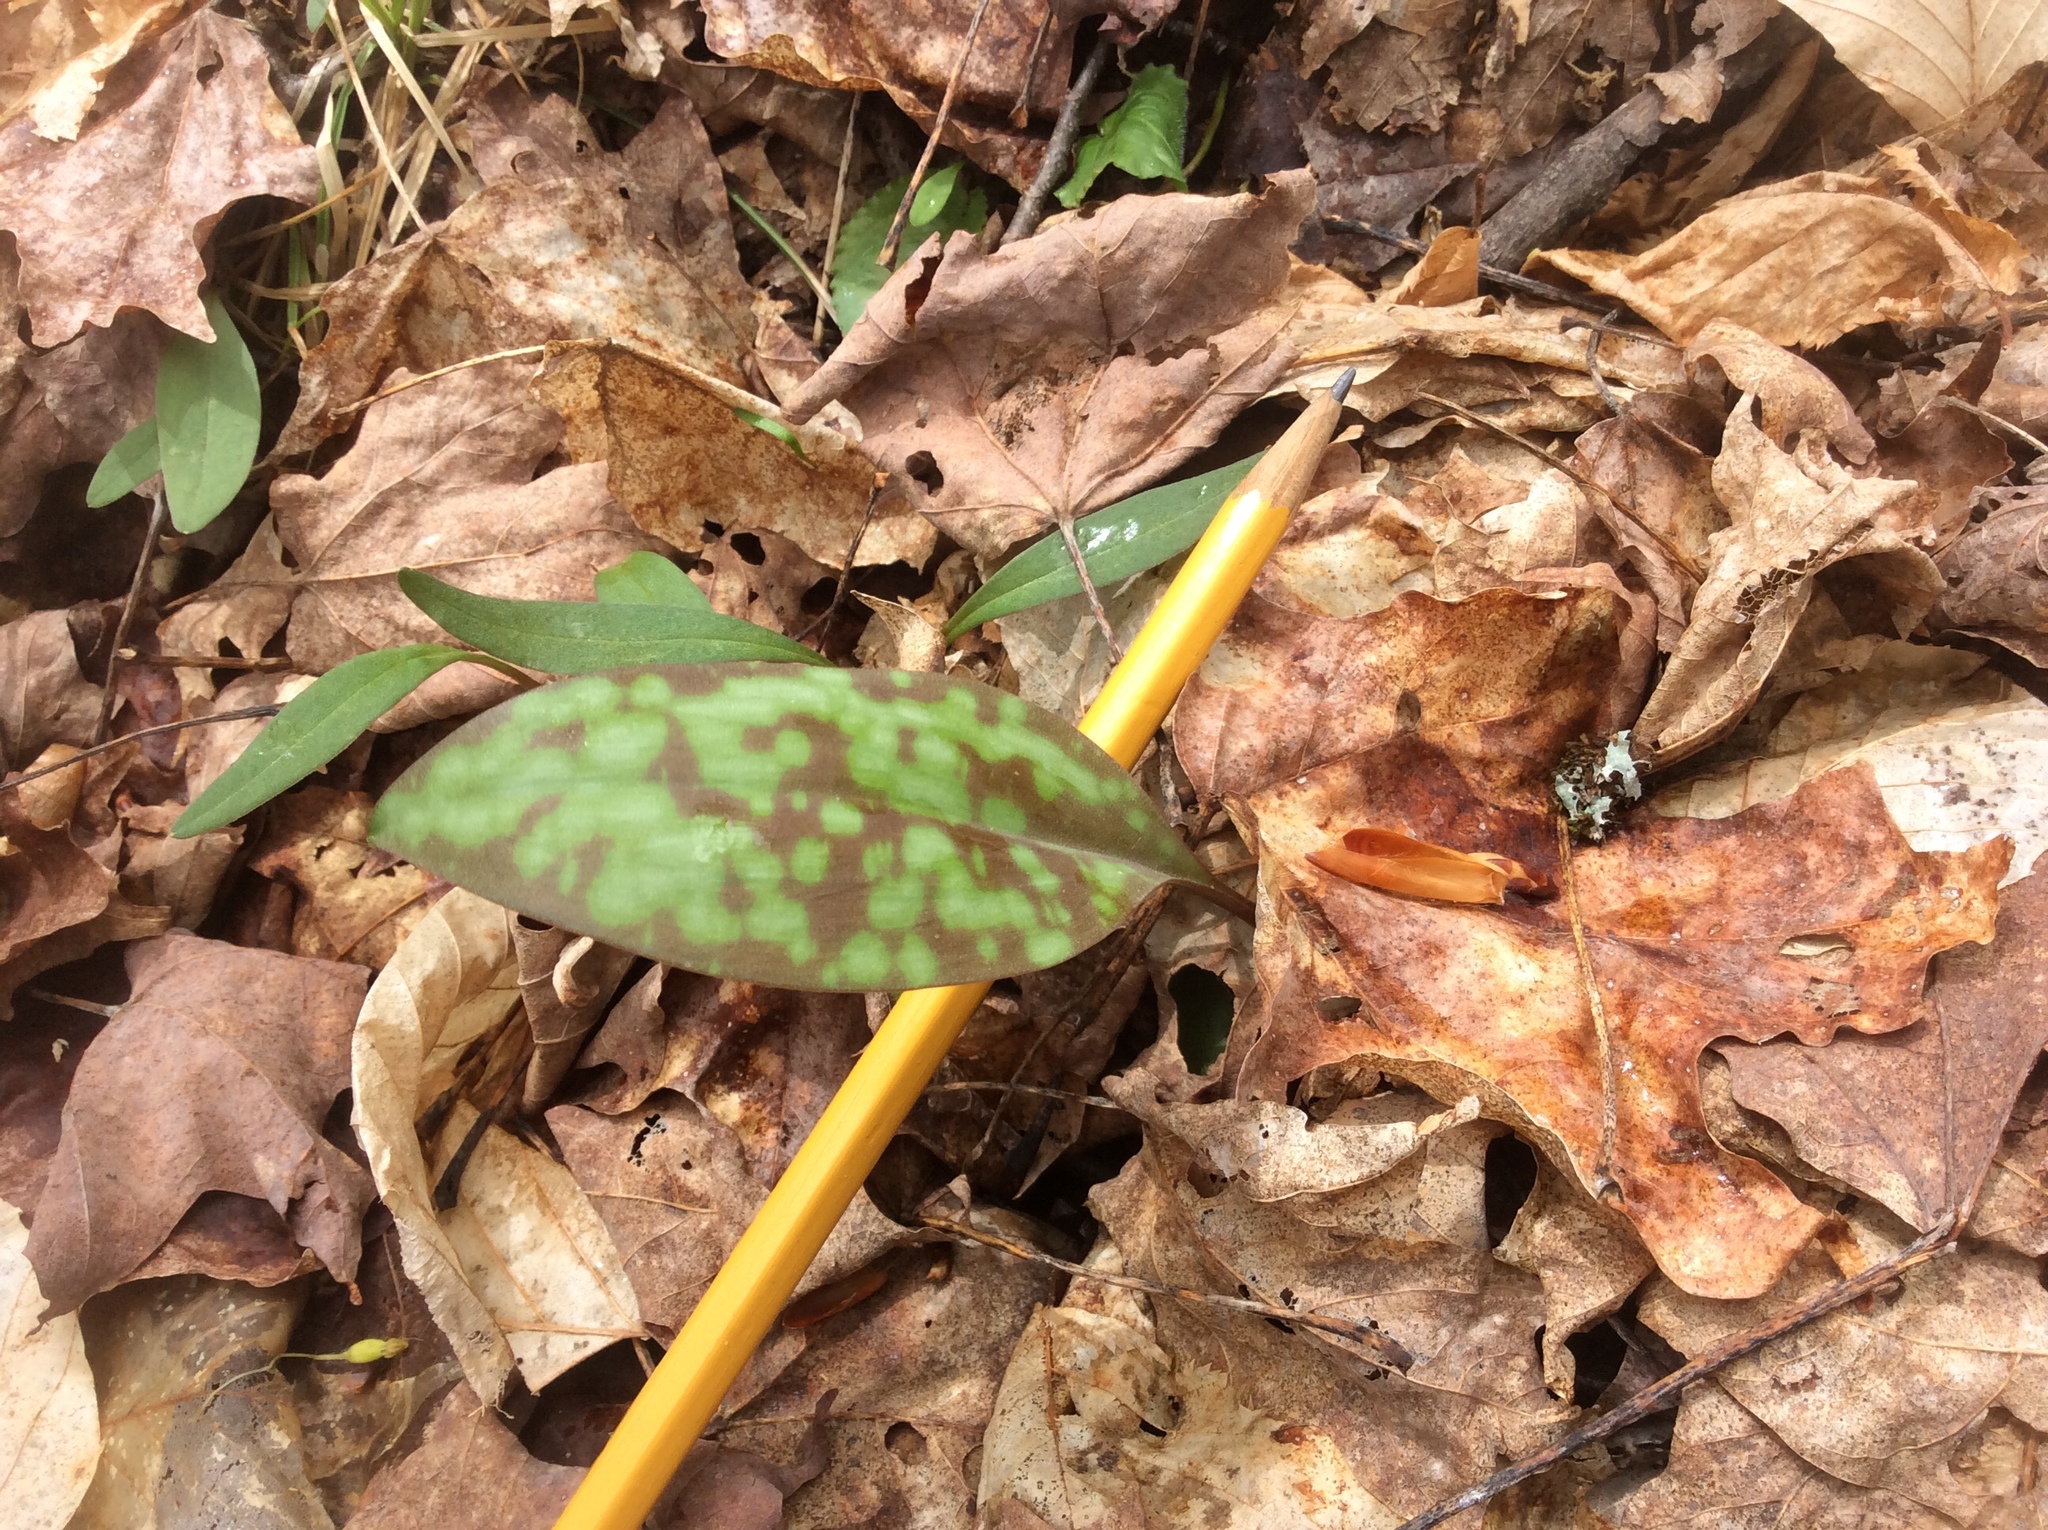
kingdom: Plantae
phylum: Tracheophyta
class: Liliopsida
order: Liliales
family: Liliaceae
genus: Erythronium
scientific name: Erythronium americanum
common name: Yellow adder's-tongue
